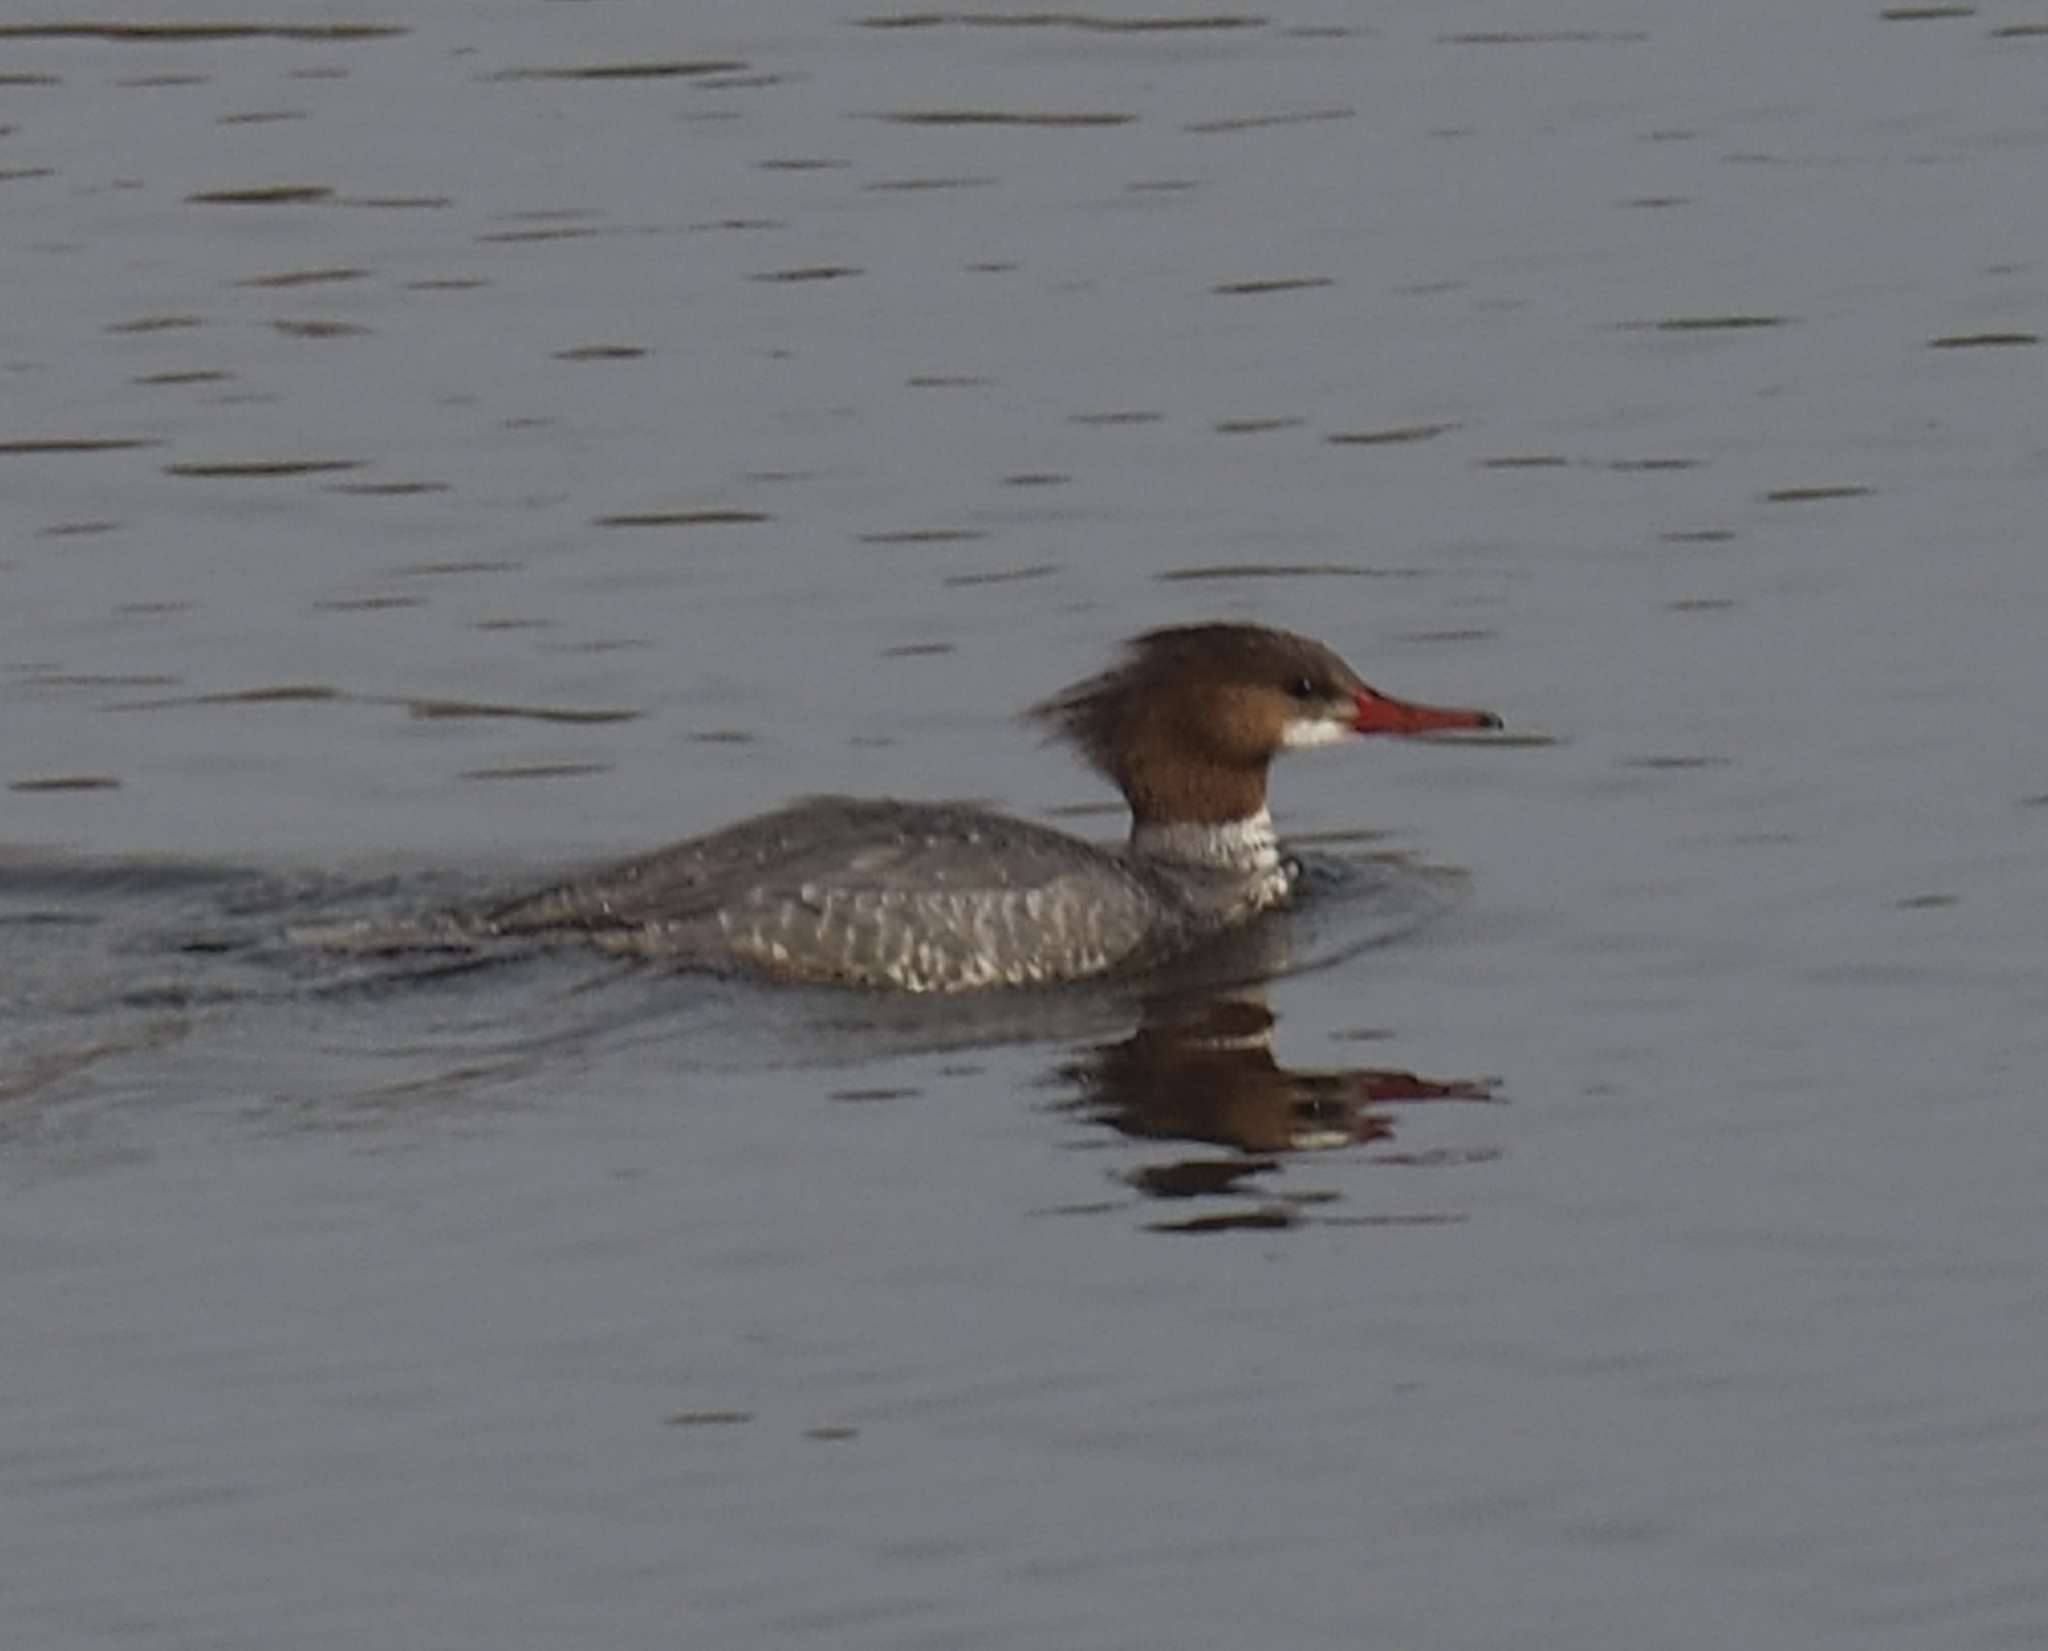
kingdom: Animalia
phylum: Chordata
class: Aves
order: Anseriformes
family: Anatidae
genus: Mergus
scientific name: Mergus merganser
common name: Common merganser
